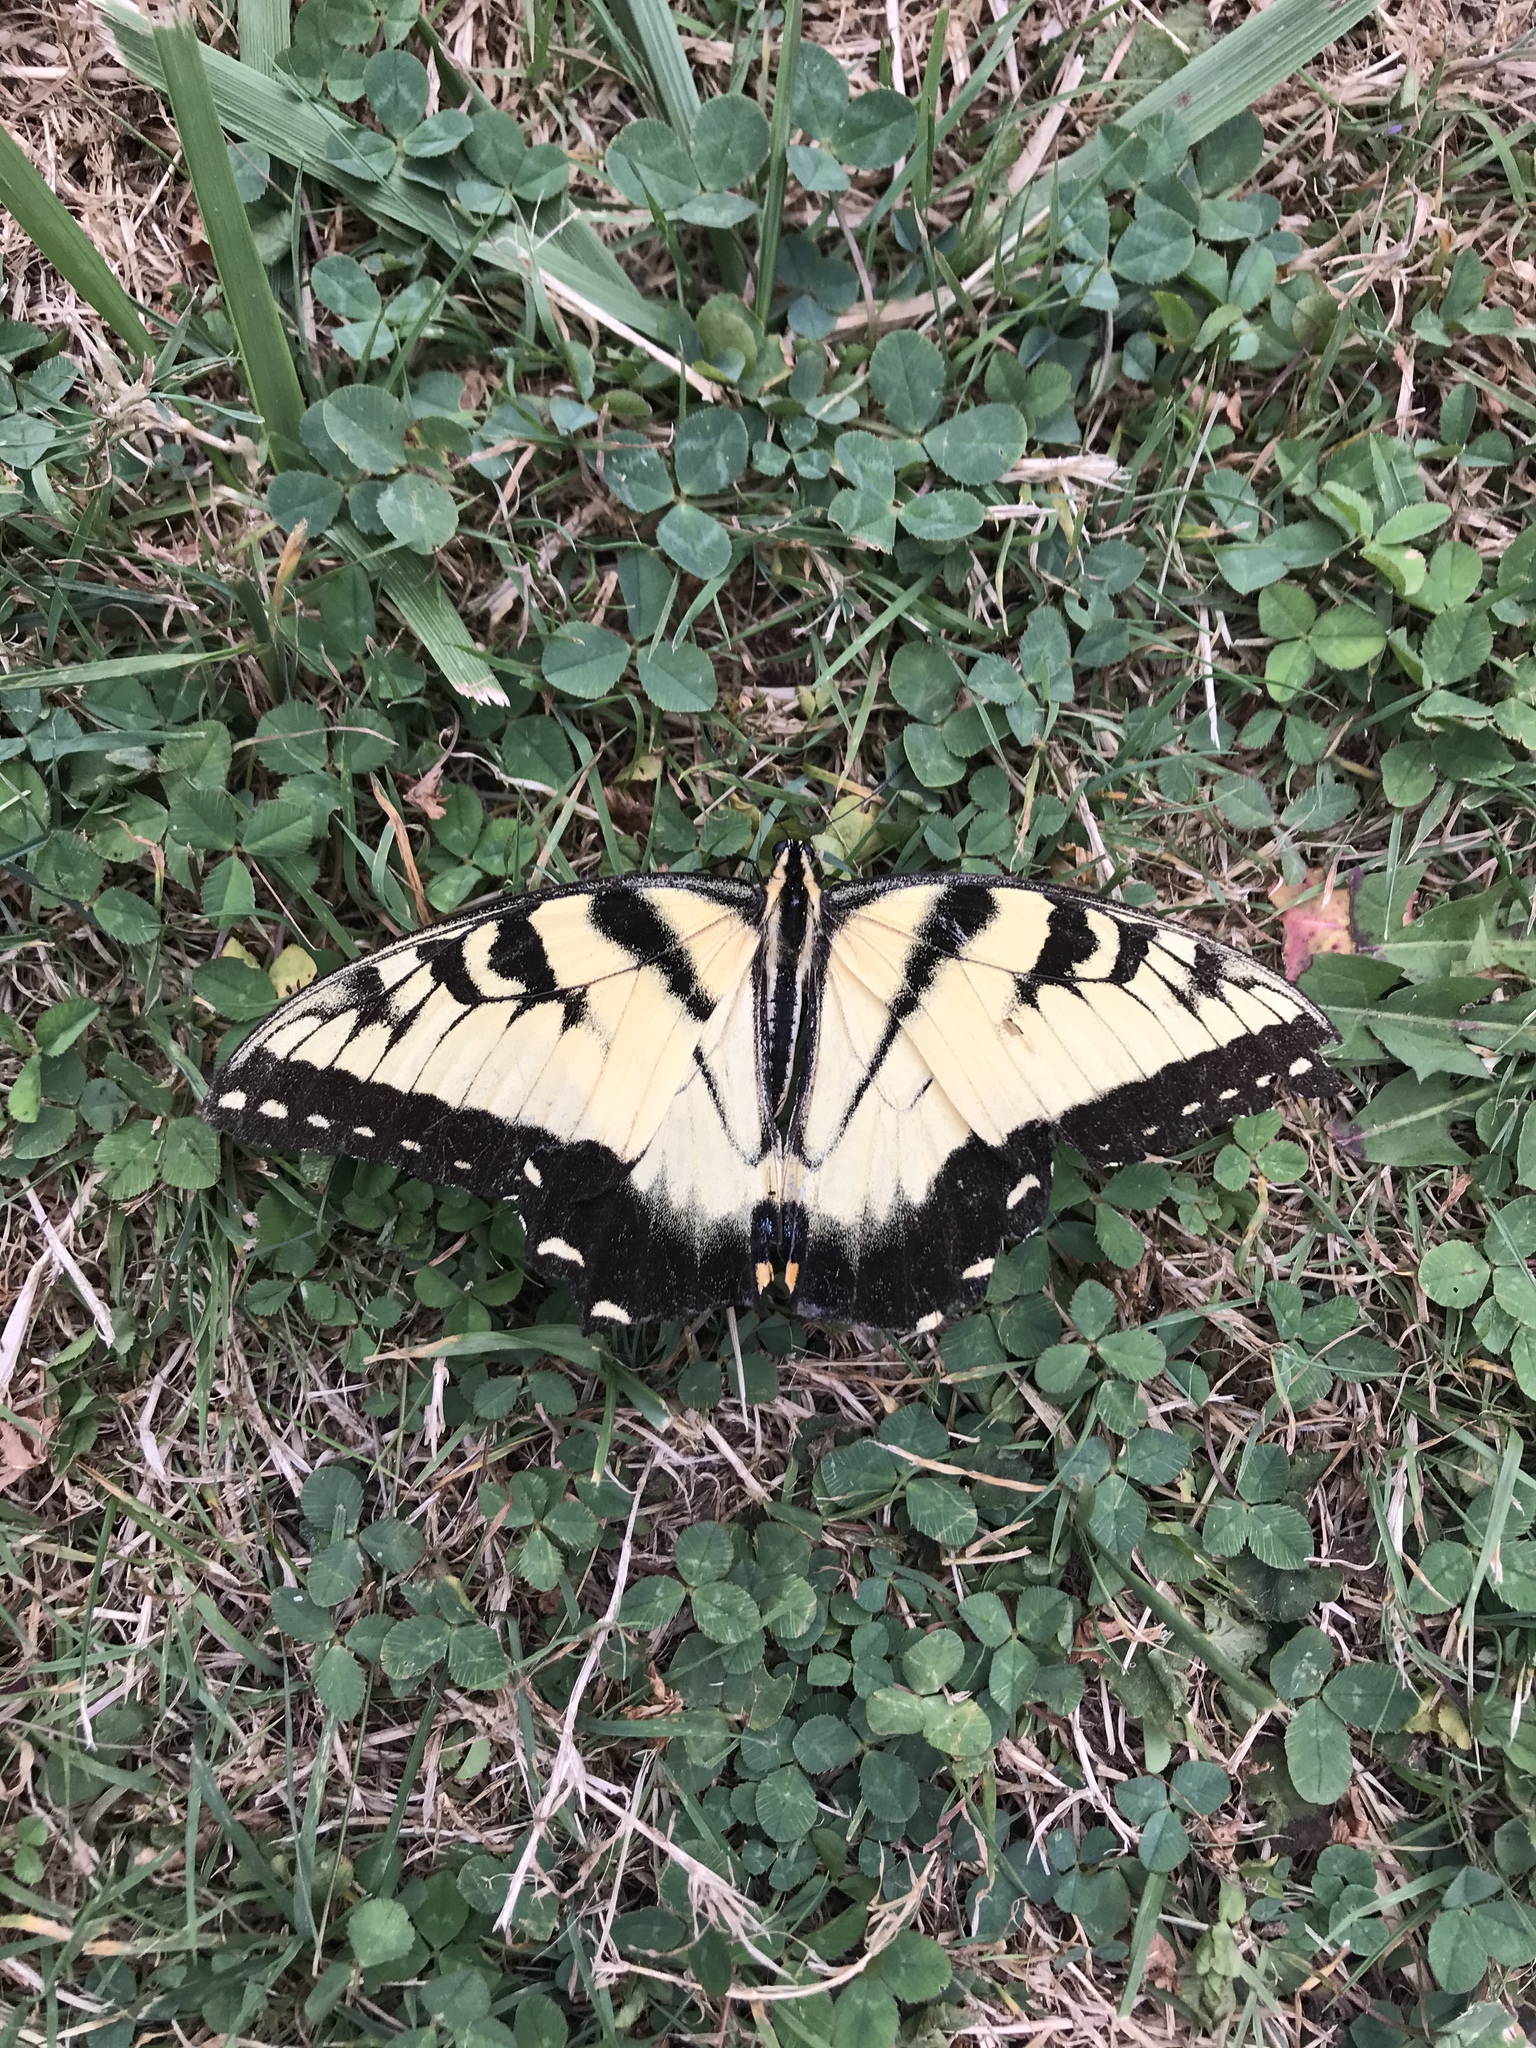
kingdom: Animalia
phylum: Arthropoda
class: Insecta
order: Lepidoptera
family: Papilionidae
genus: Papilio
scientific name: Papilio glaucus
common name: Tiger swallowtail
